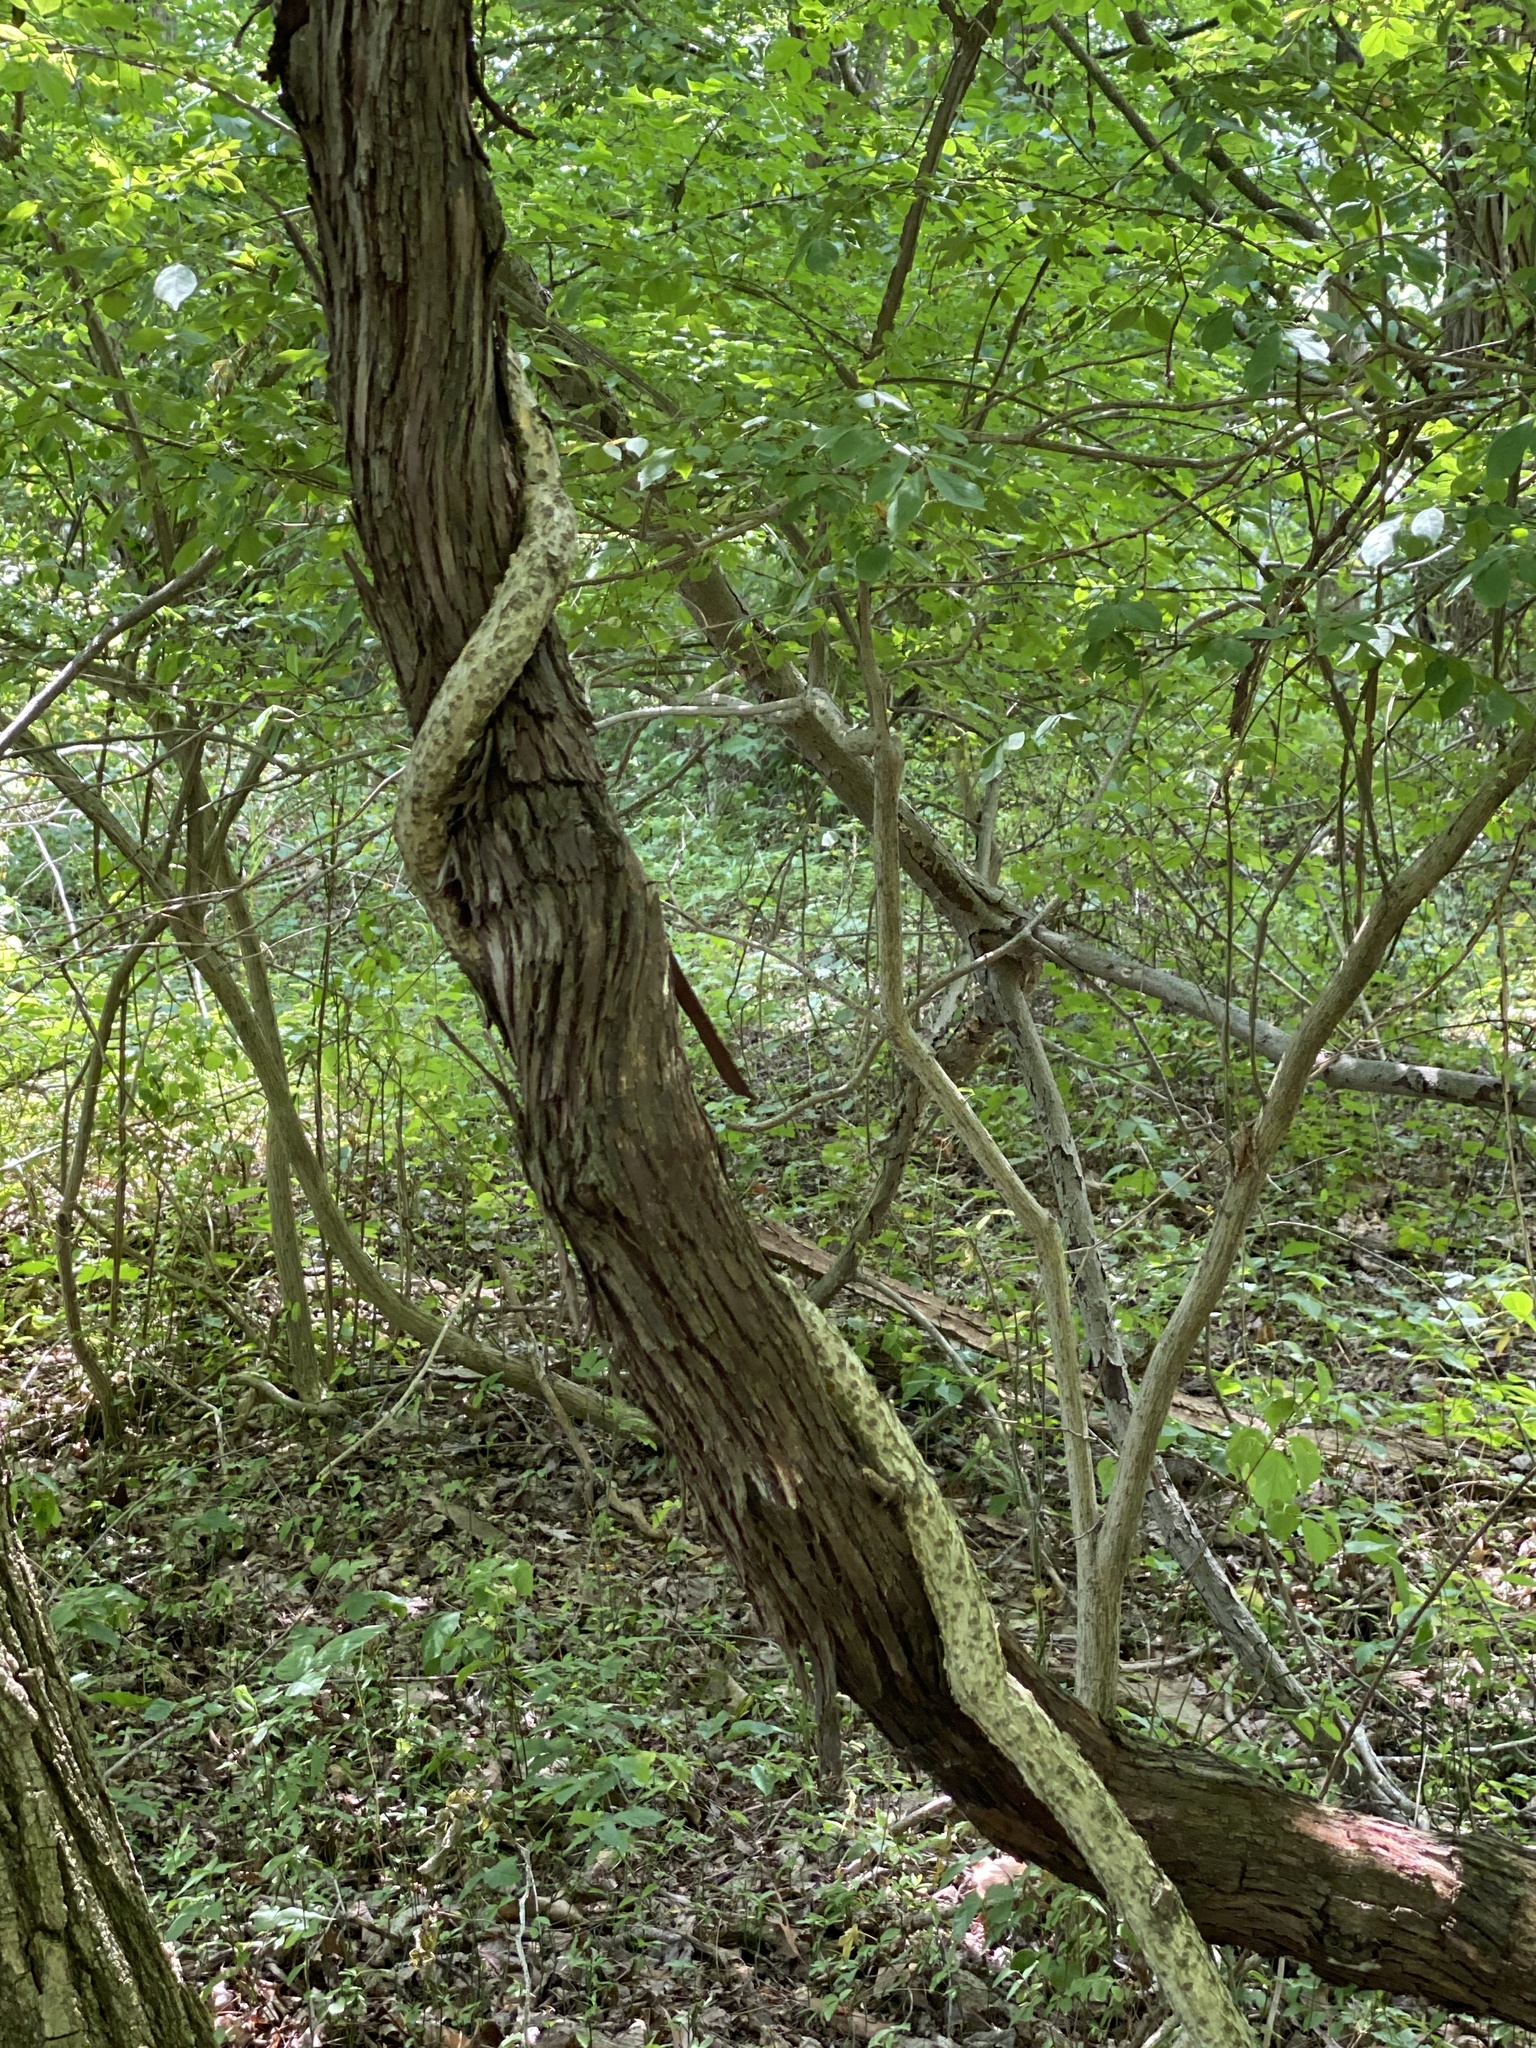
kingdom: Plantae
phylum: Tracheophyta
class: Magnoliopsida
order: Vitales
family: Vitaceae
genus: Vitis
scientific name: Vitis
